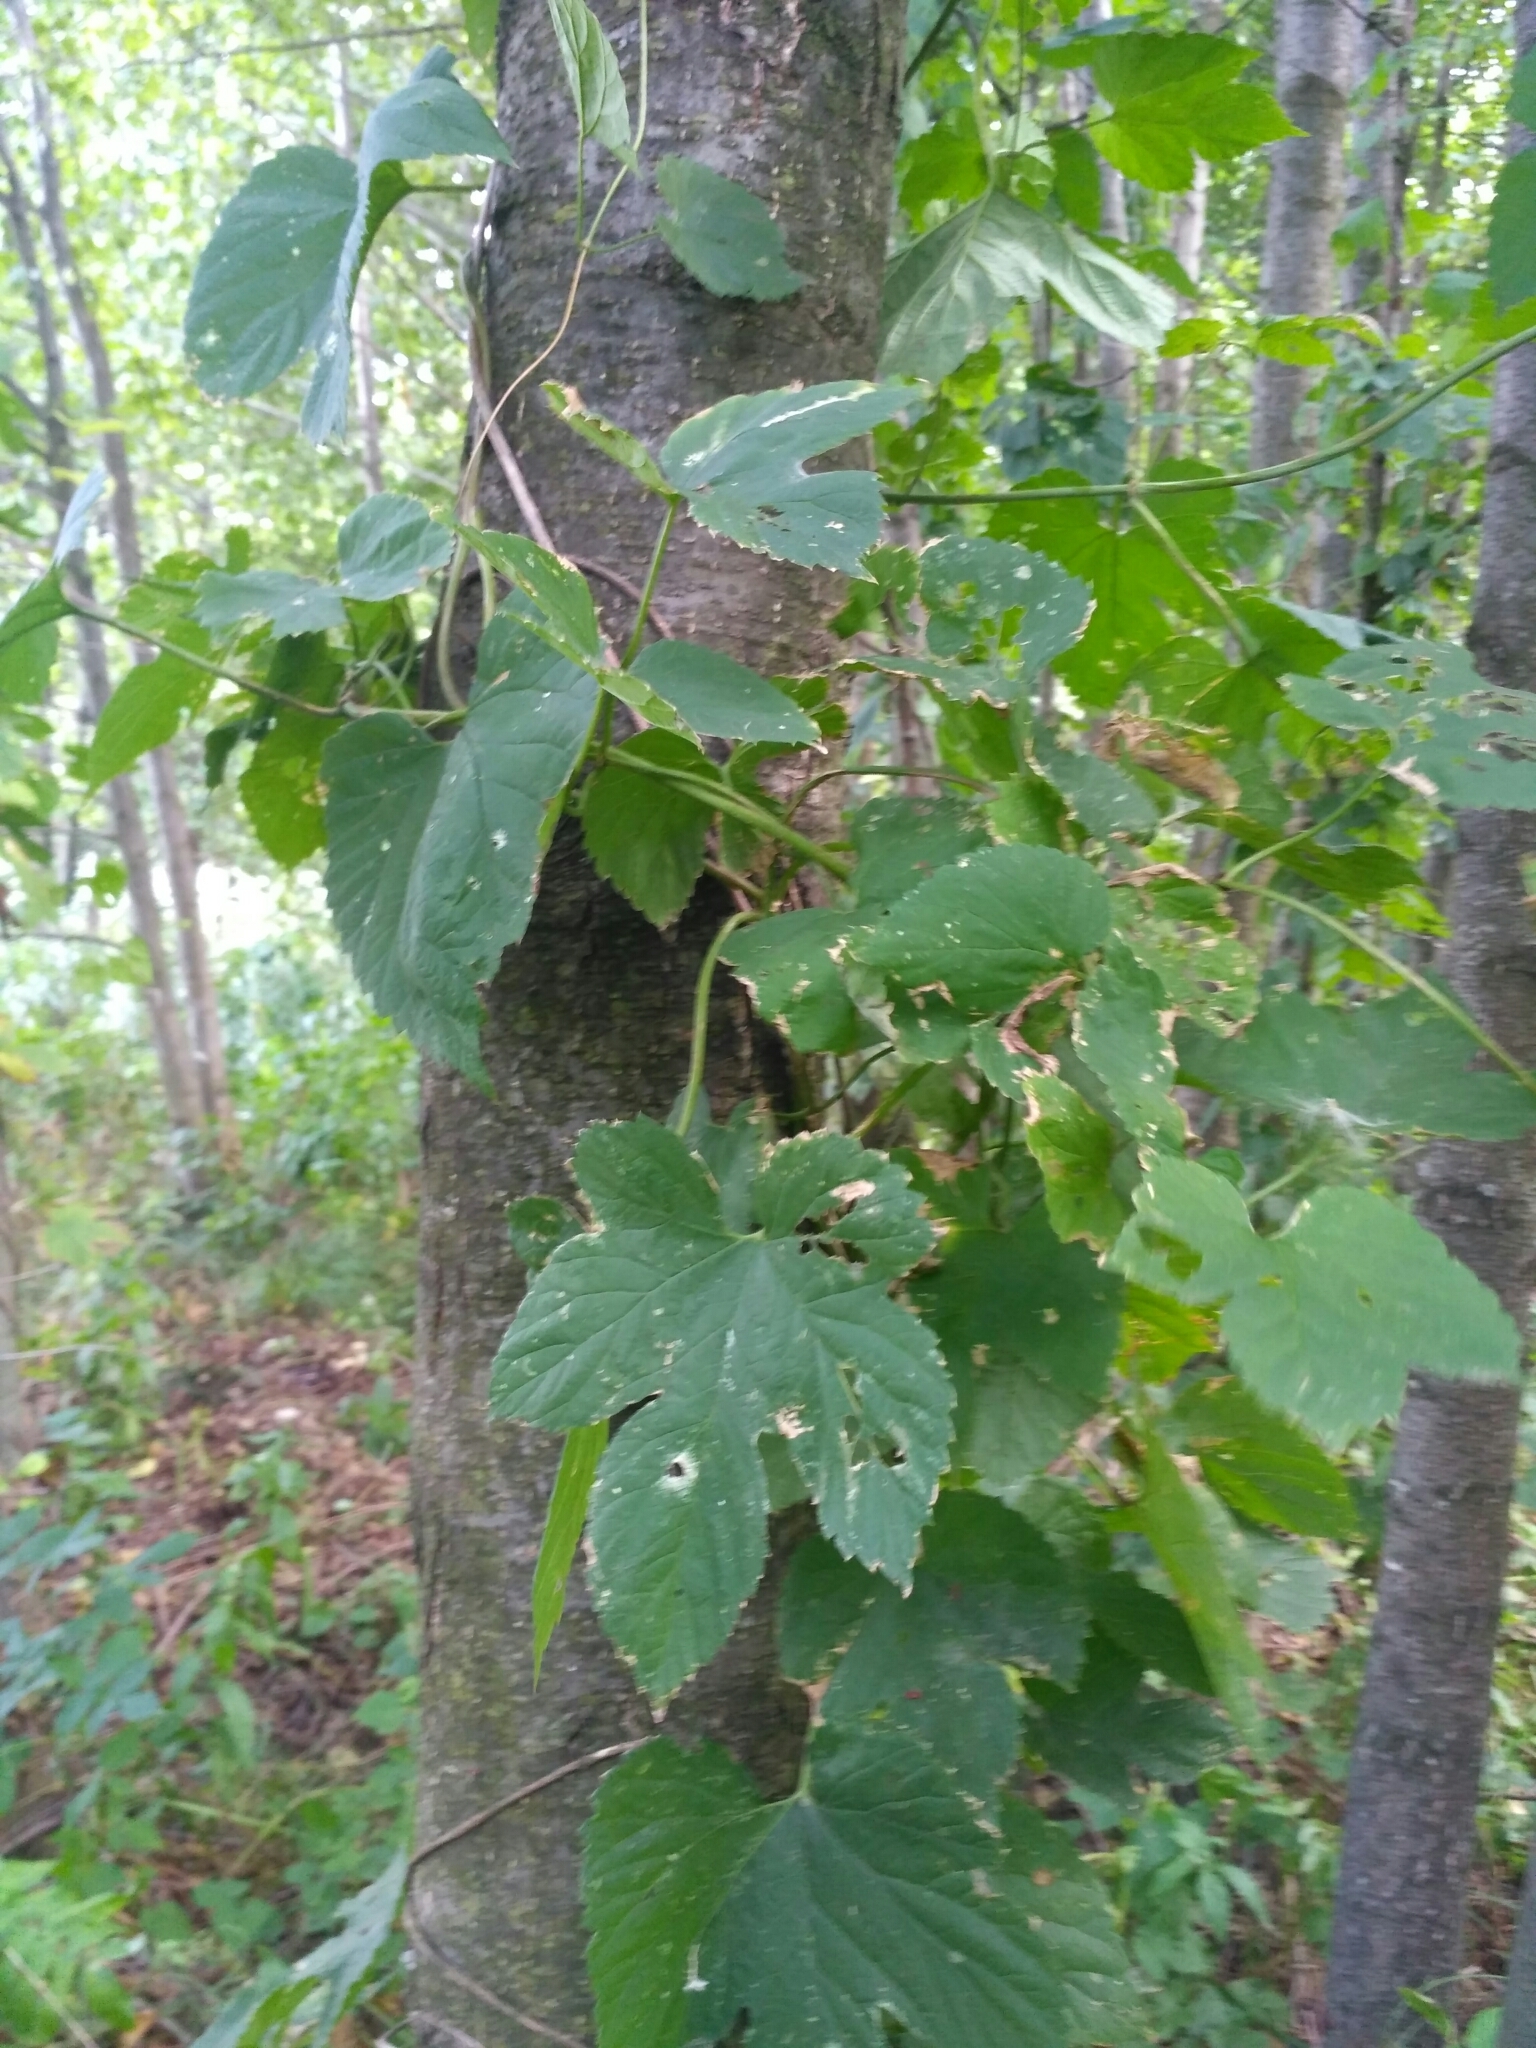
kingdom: Plantae
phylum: Tracheophyta
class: Magnoliopsida
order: Rosales
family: Cannabaceae
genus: Humulus
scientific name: Humulus lupulus
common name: Hop
